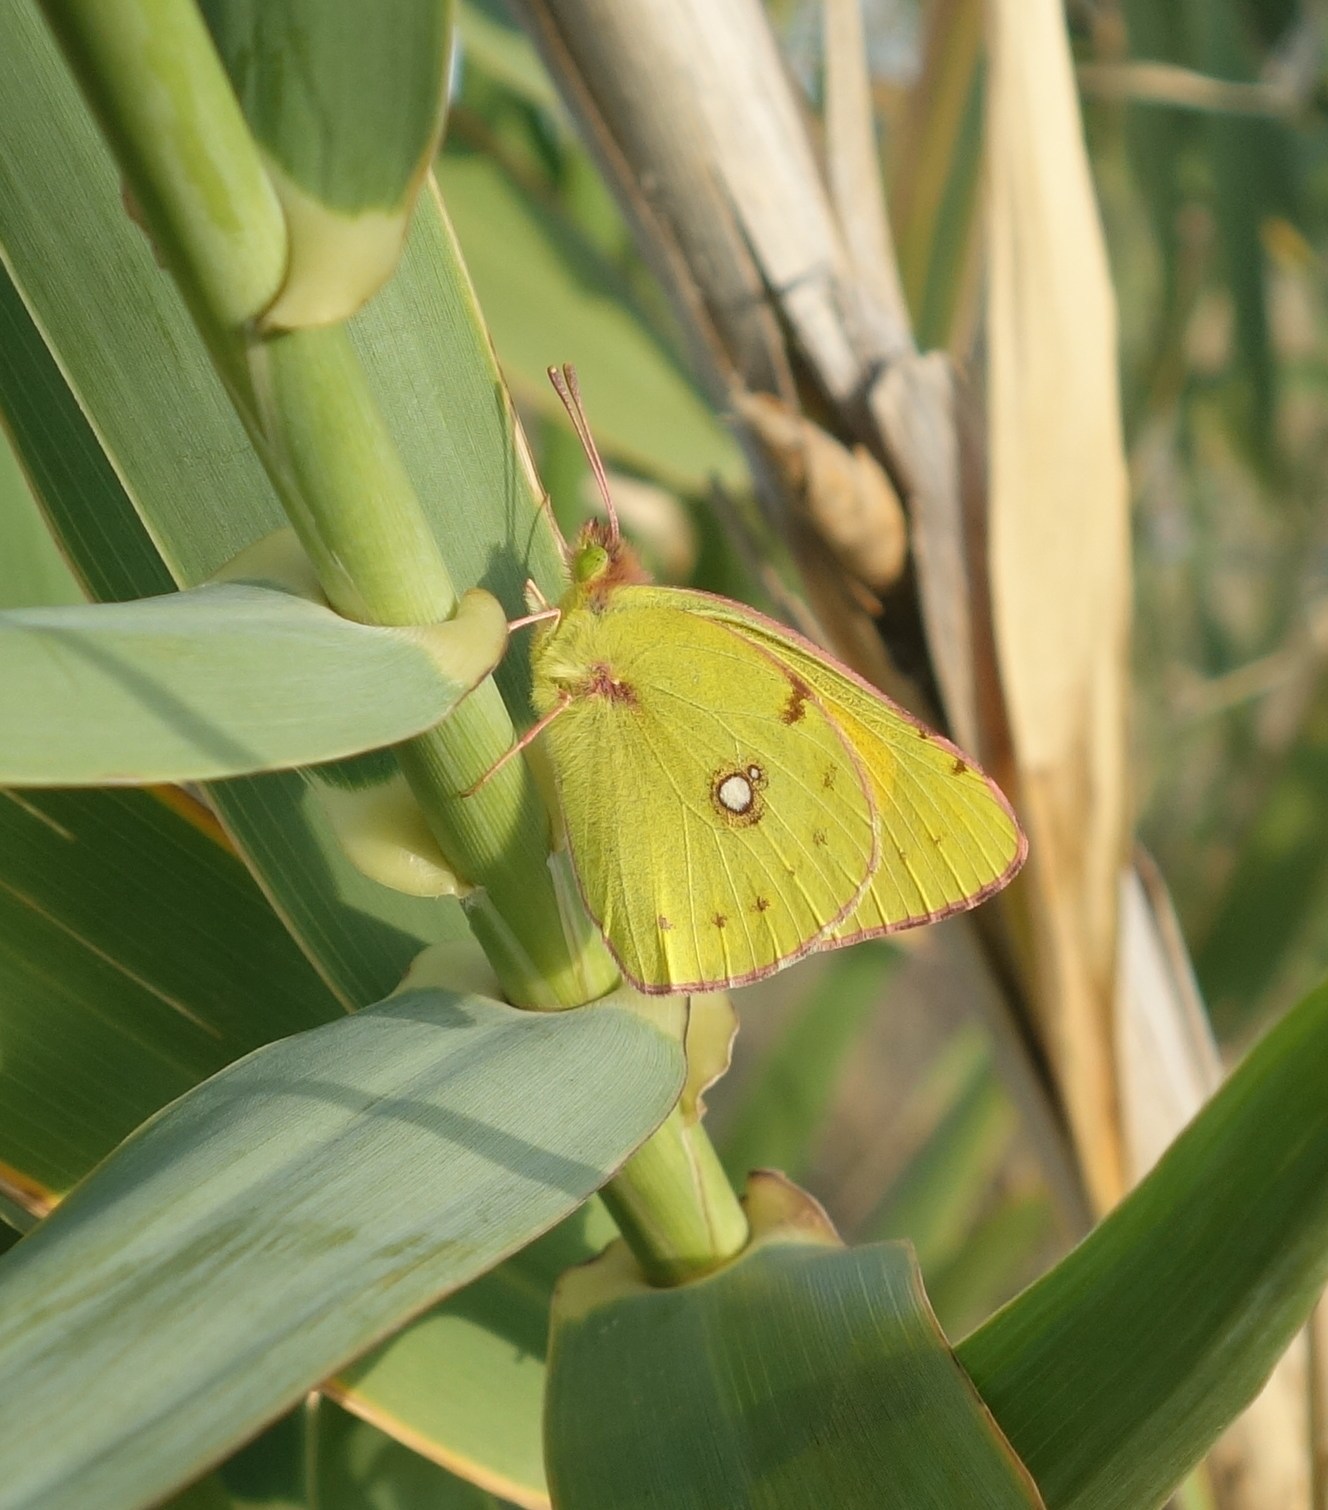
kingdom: Animalia
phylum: Arthropoda
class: Insecta
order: Lepidoptera
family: Pieridae
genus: Colias
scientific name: Colias croceus
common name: Clouded yellow
